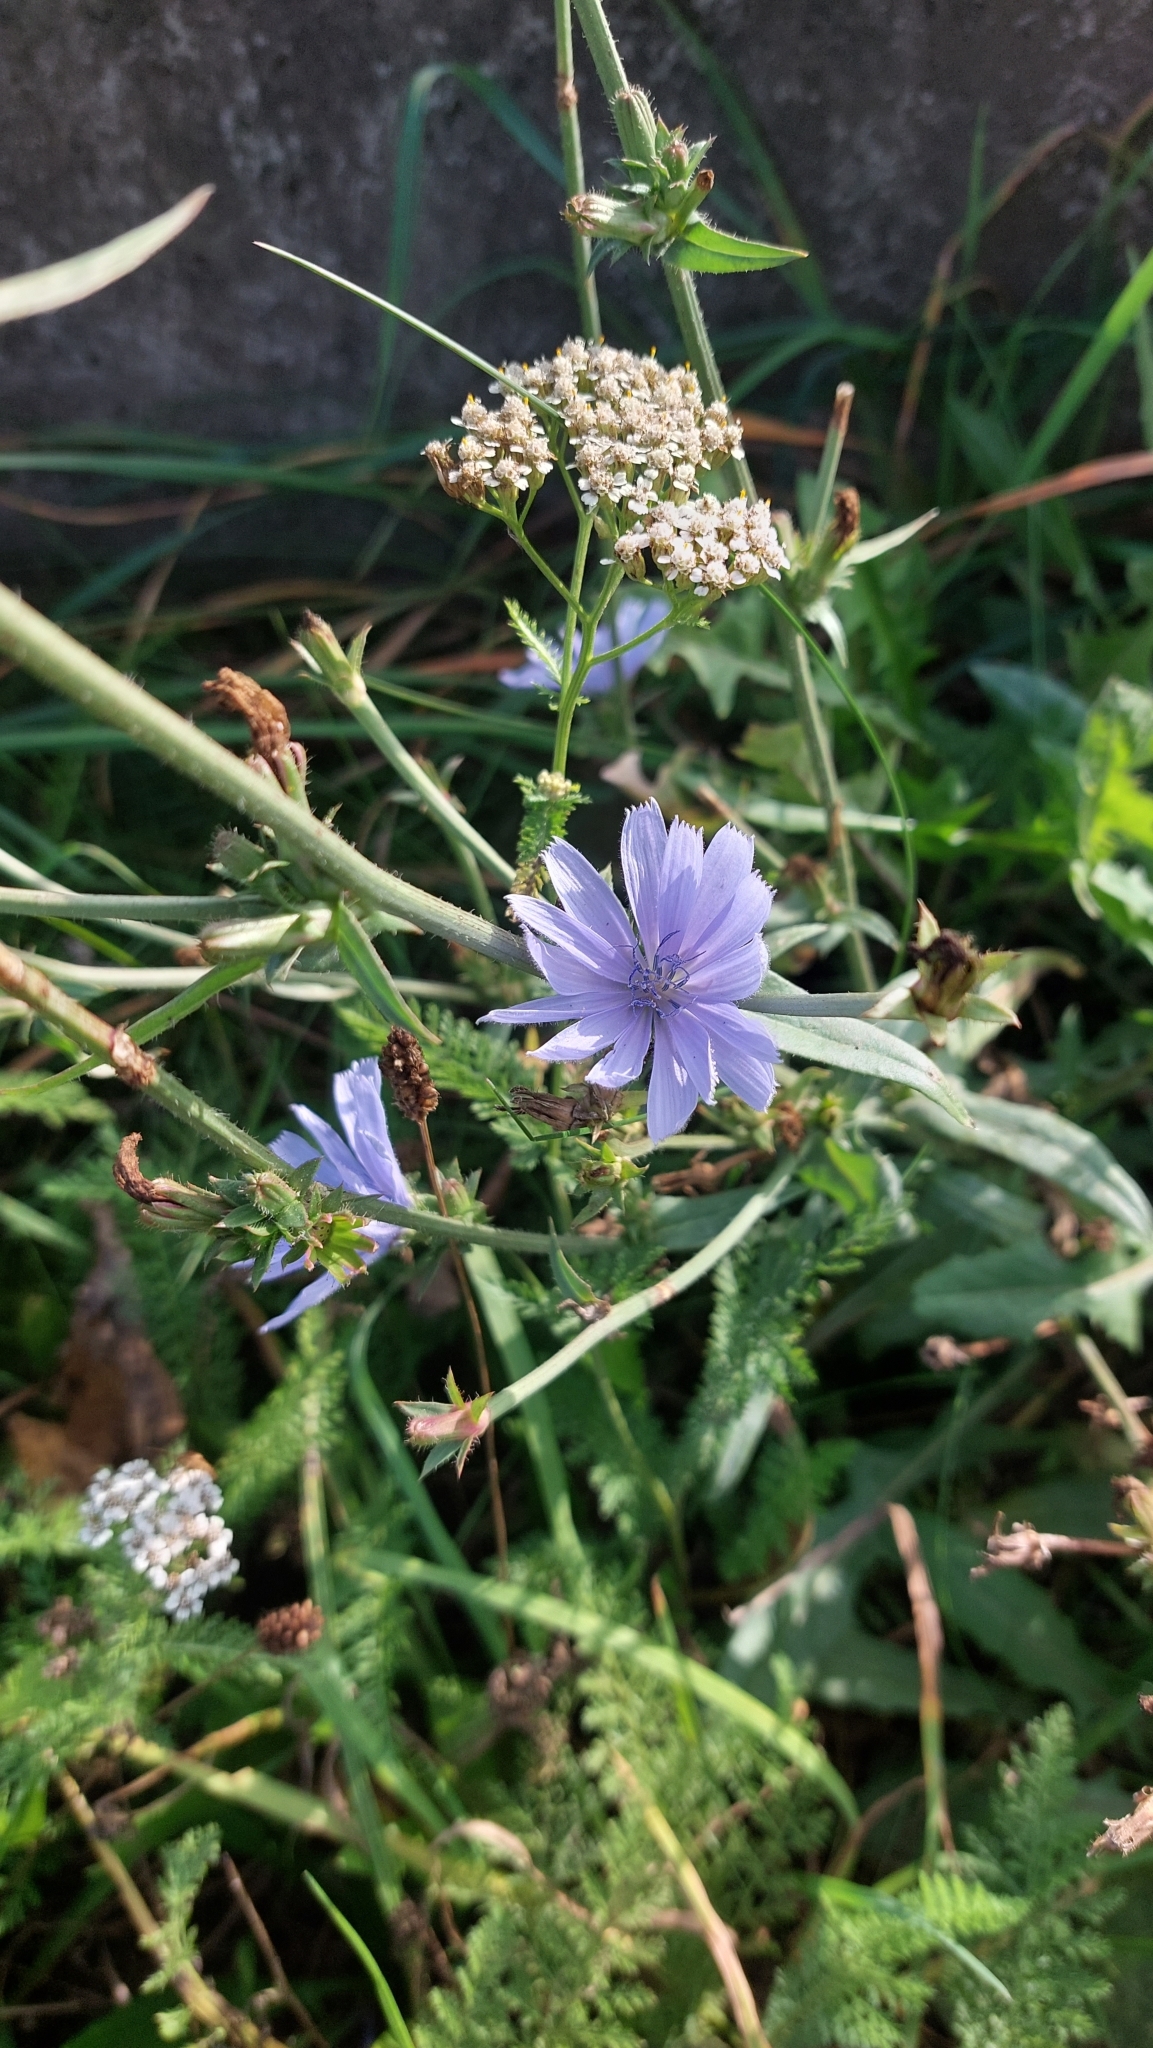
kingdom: Plantae
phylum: Tracheophyta
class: Magnoliopsida
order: Asterales
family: Asteraceae
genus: Cichorium
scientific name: Cichorium intybus
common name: Chicory
